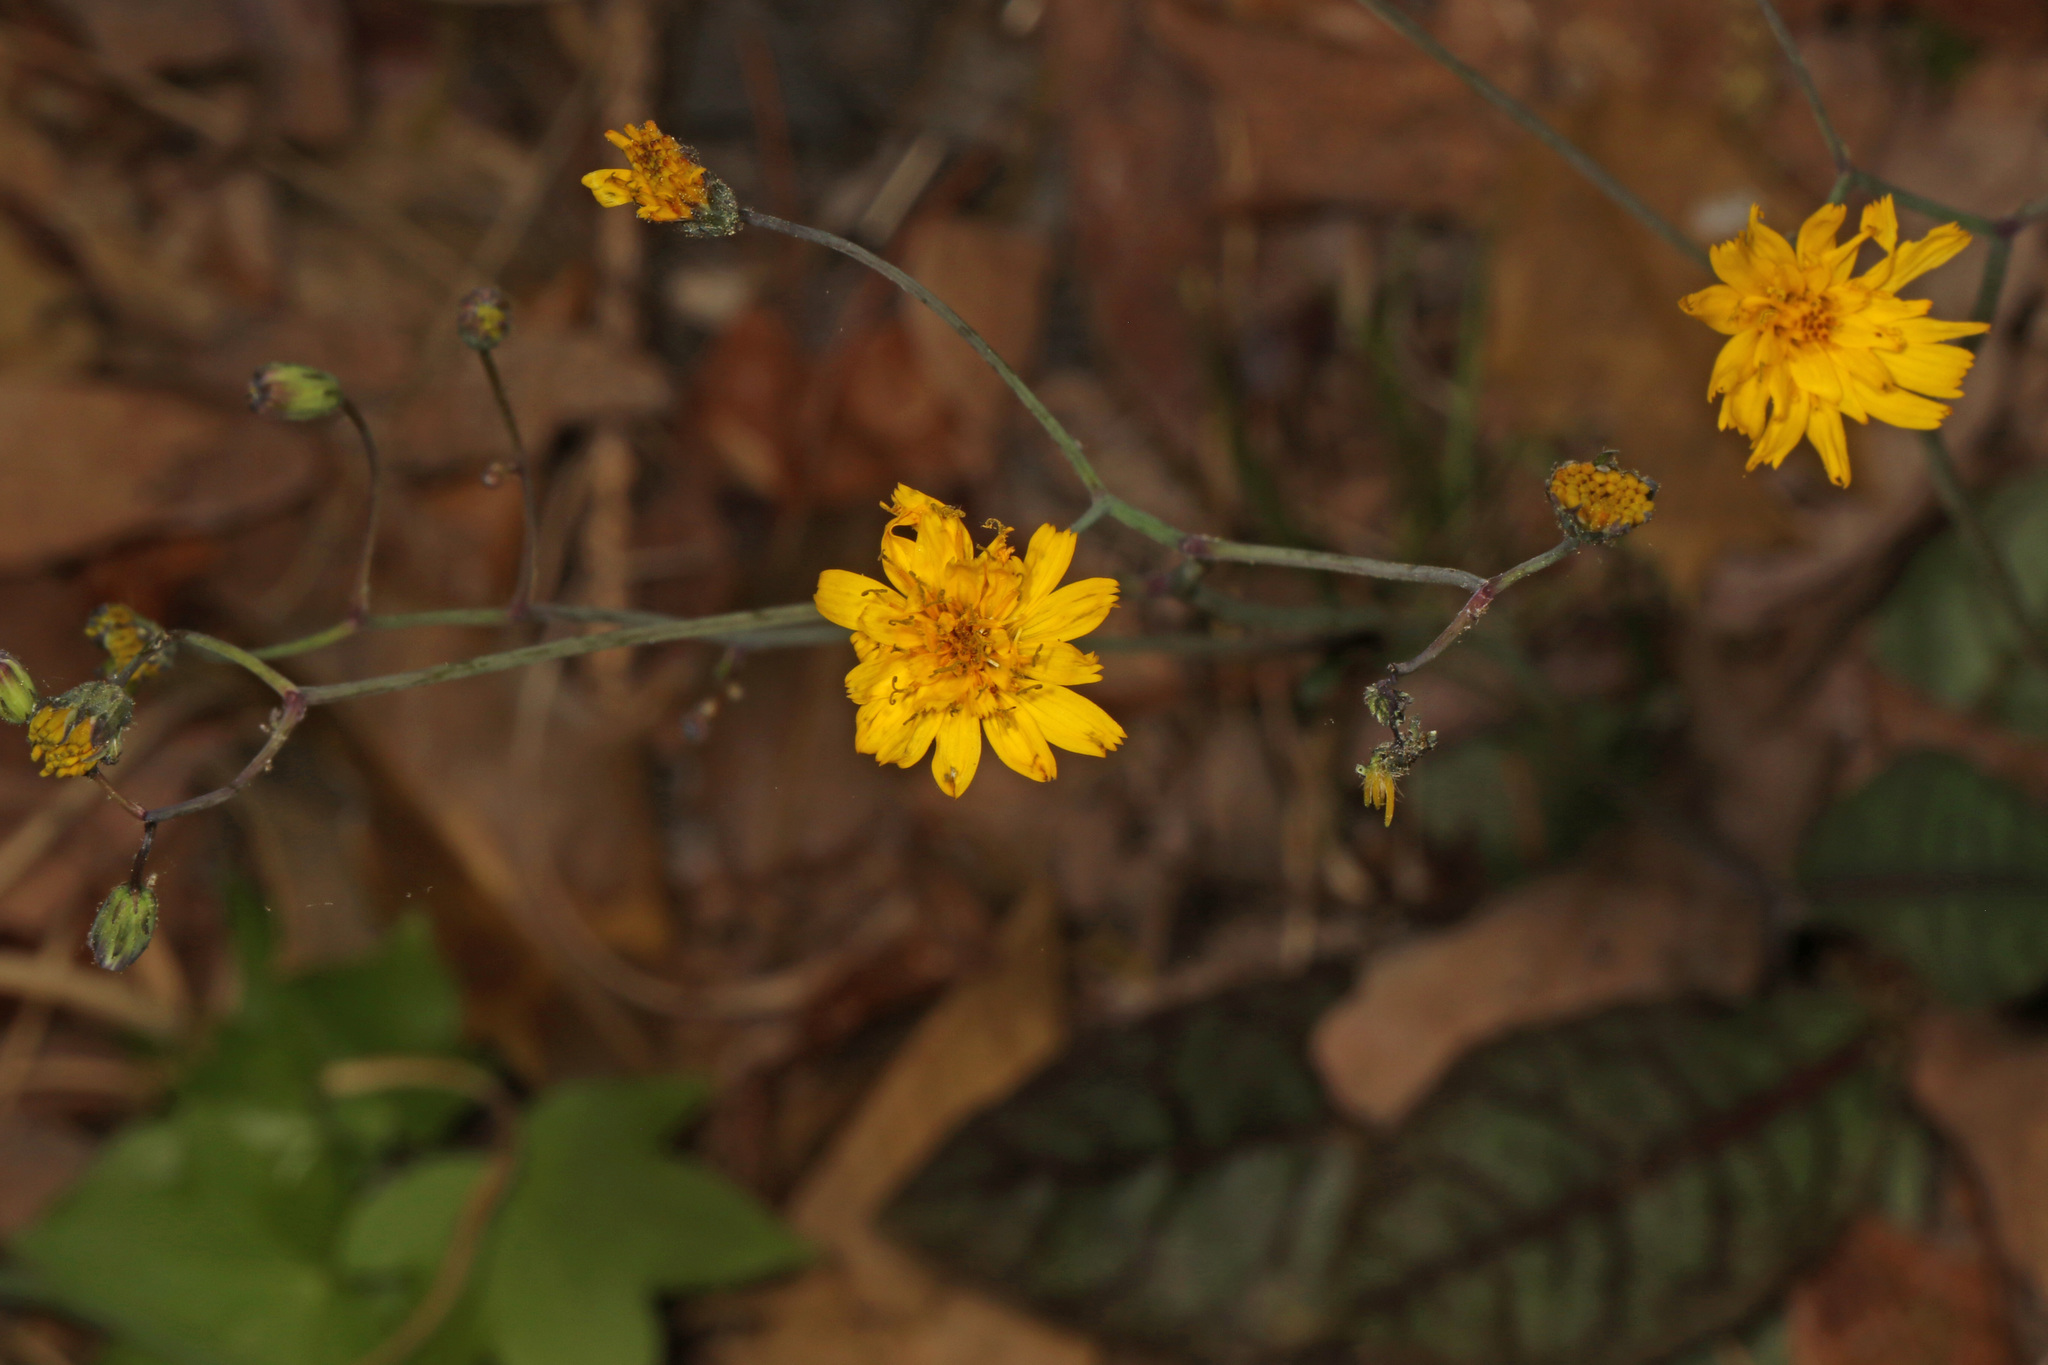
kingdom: Plantae
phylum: Tracheophyta
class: Magnoliopsida
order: Asterales
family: Asteraceae
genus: Hieracium
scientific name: Hieracium venosum
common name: Rattlesnake hawkweed
